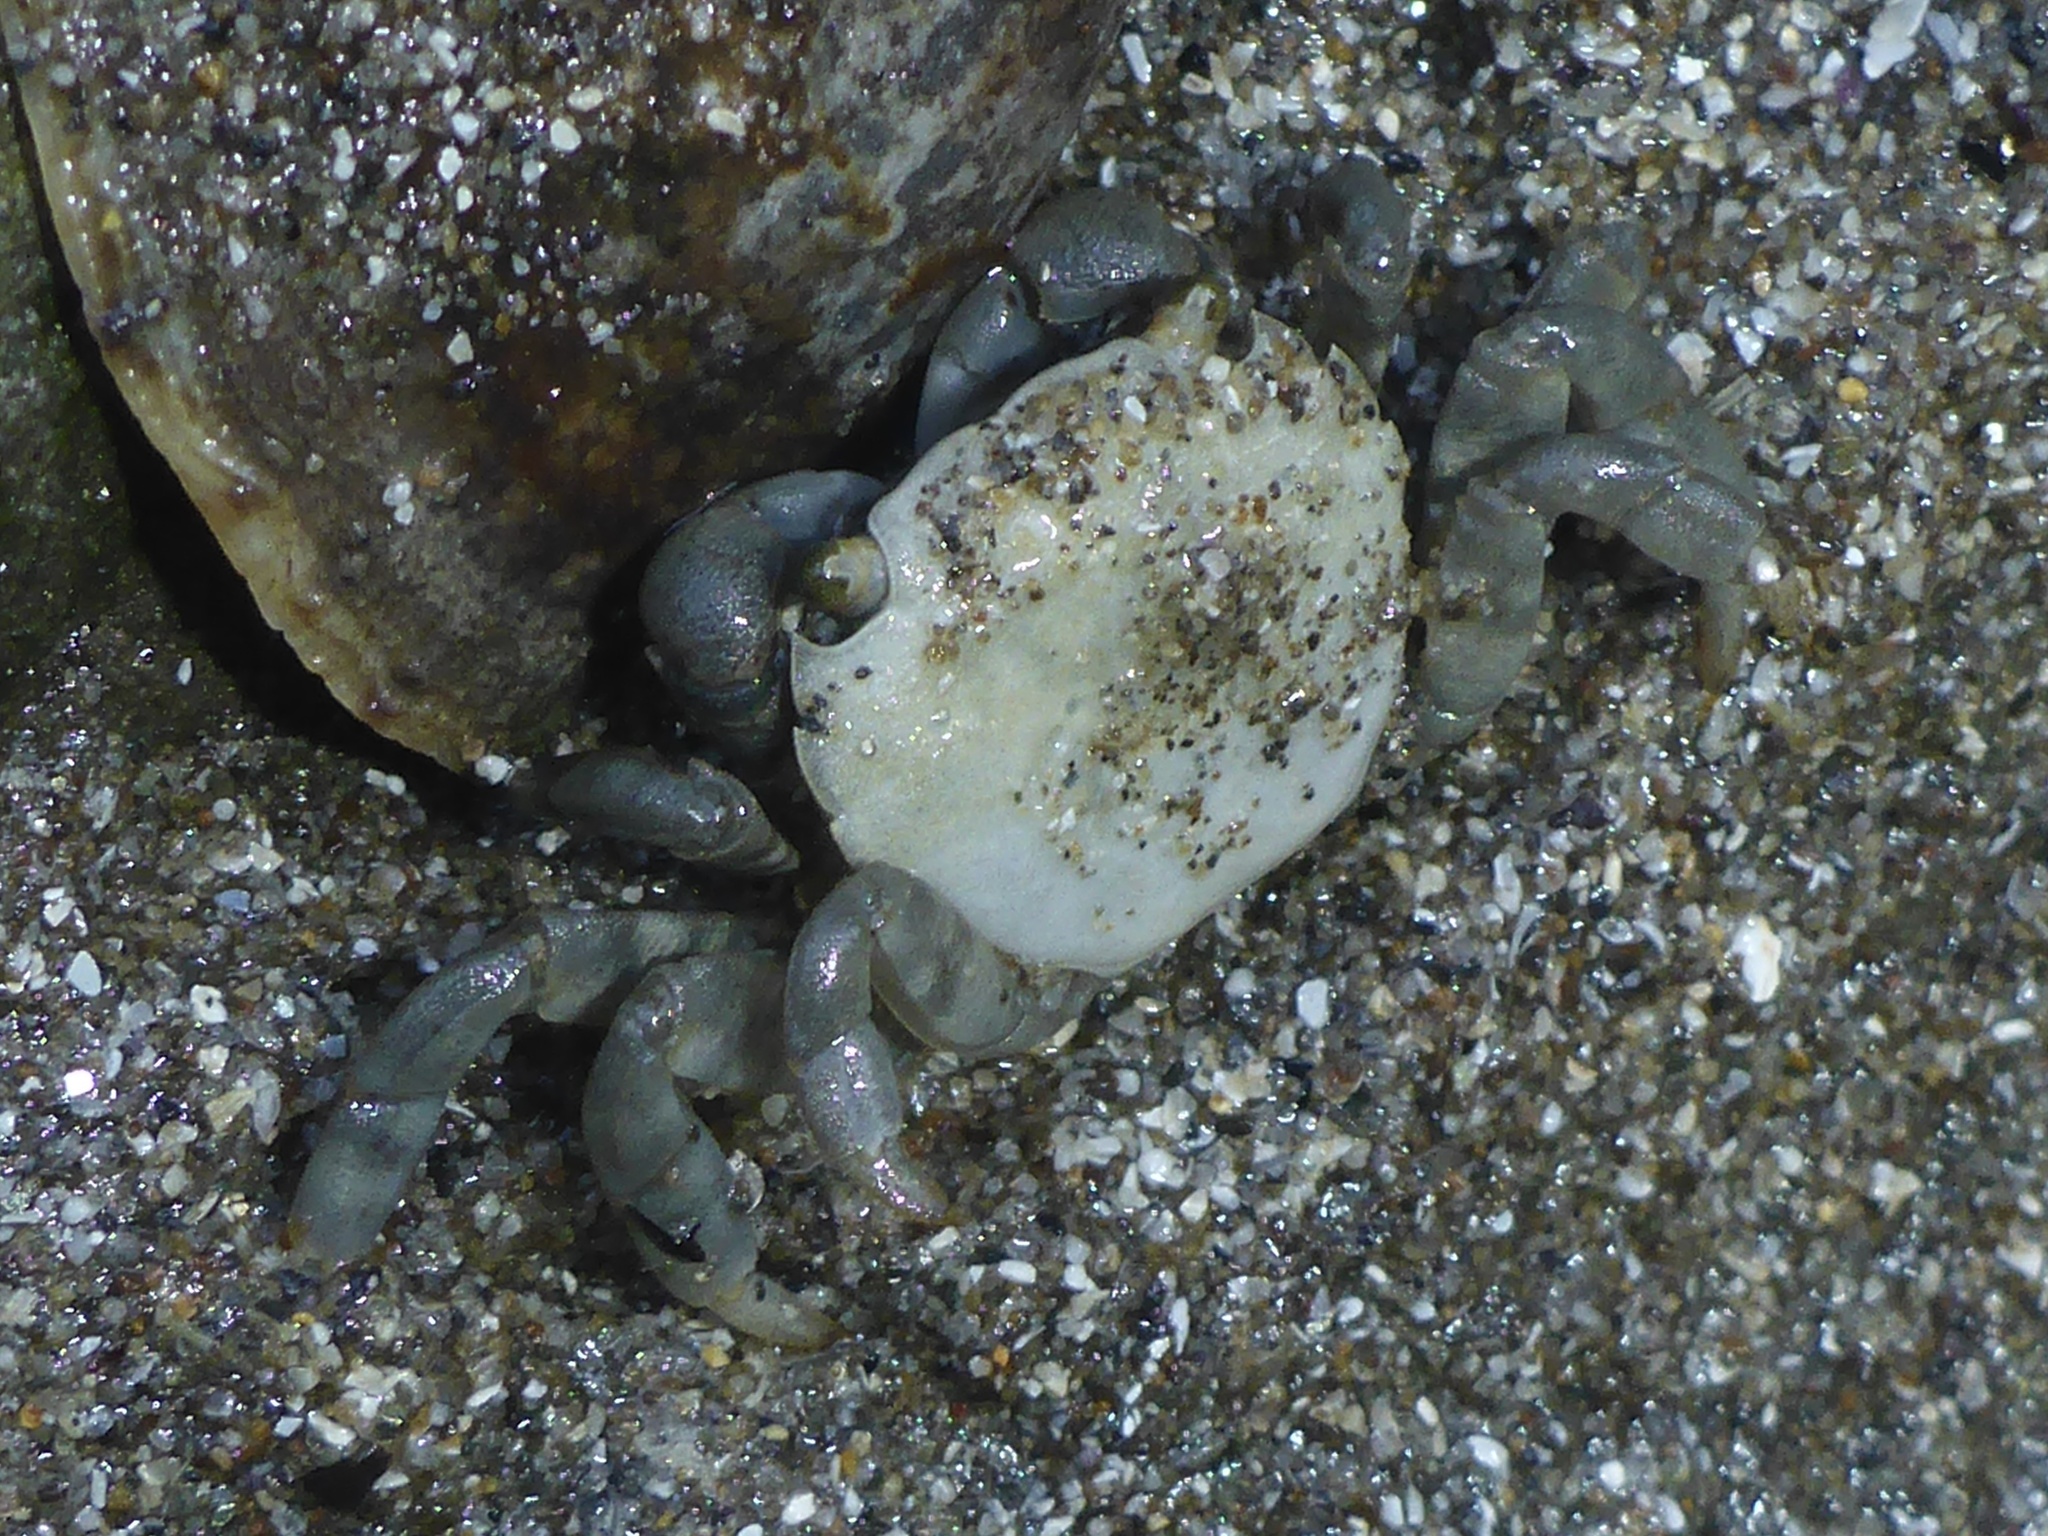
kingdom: Animalia
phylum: Arthropoda
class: Malacostraca
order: Decapoda
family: Varunidae
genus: Hemigrapsus
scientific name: Hemigrapsus nudus
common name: Purple shore crab
